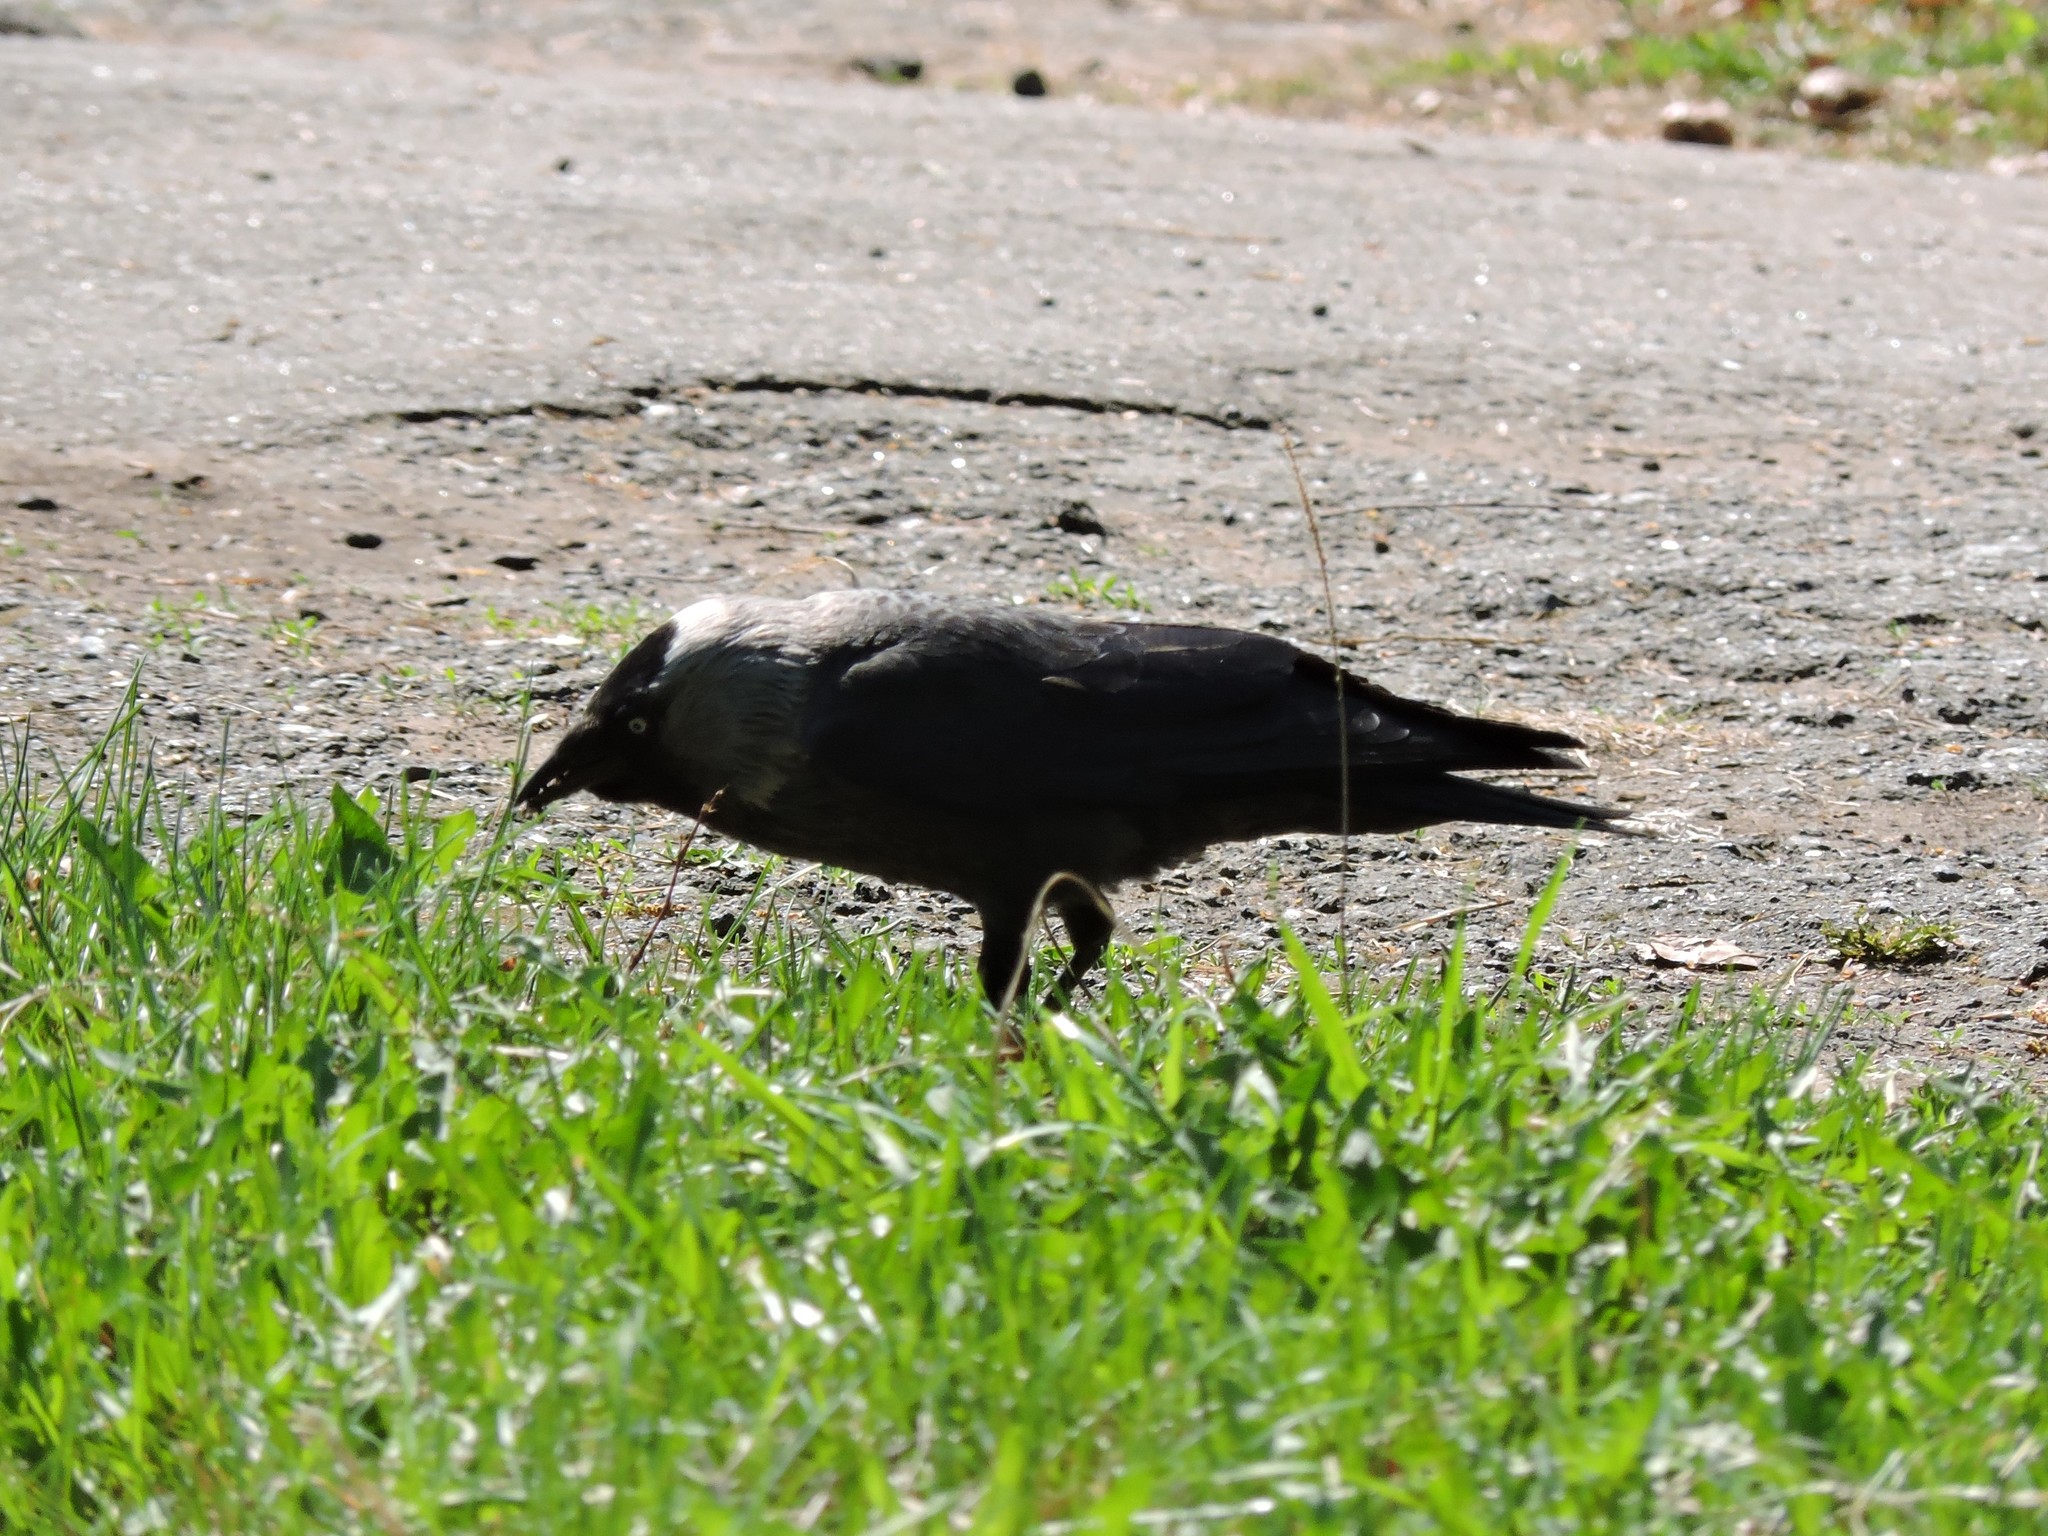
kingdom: Animalia
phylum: Chordata
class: Aves
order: Passeriformes
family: Corvidae
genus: Coloeus
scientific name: Coloeus monedula
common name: Western jackdaw
